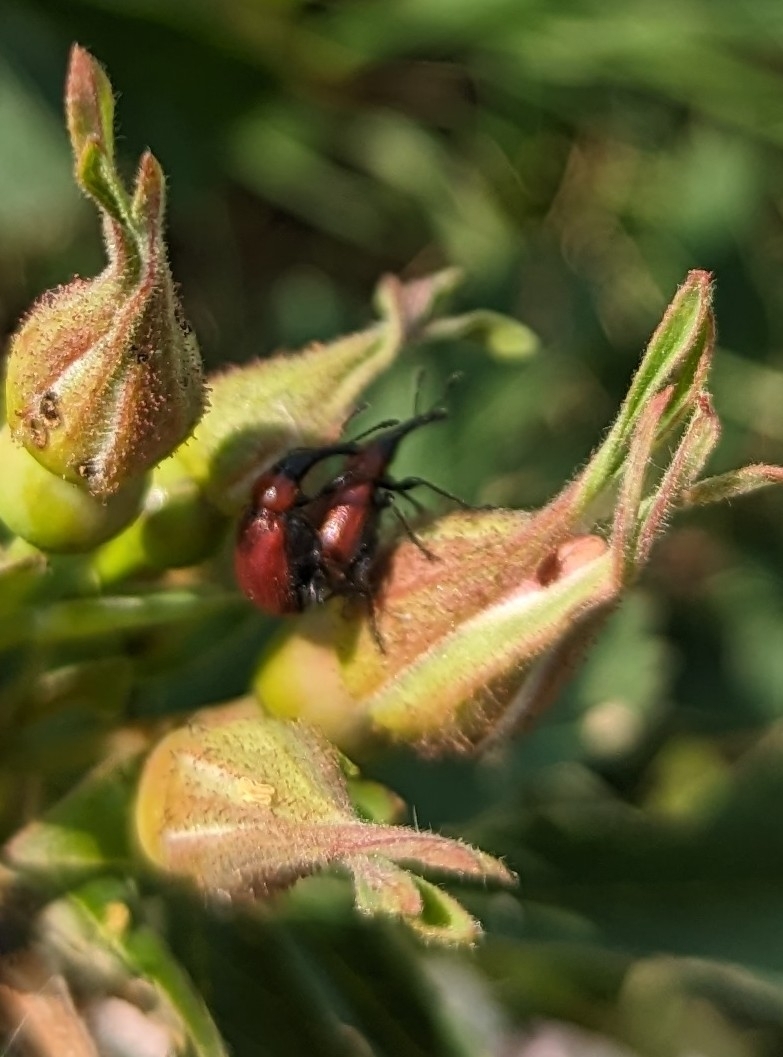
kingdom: Animalia
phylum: Arthropoda
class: Insecta
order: Coleoptera
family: Attelabidae
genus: Merhynchites
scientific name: Merhynchites bicolor
